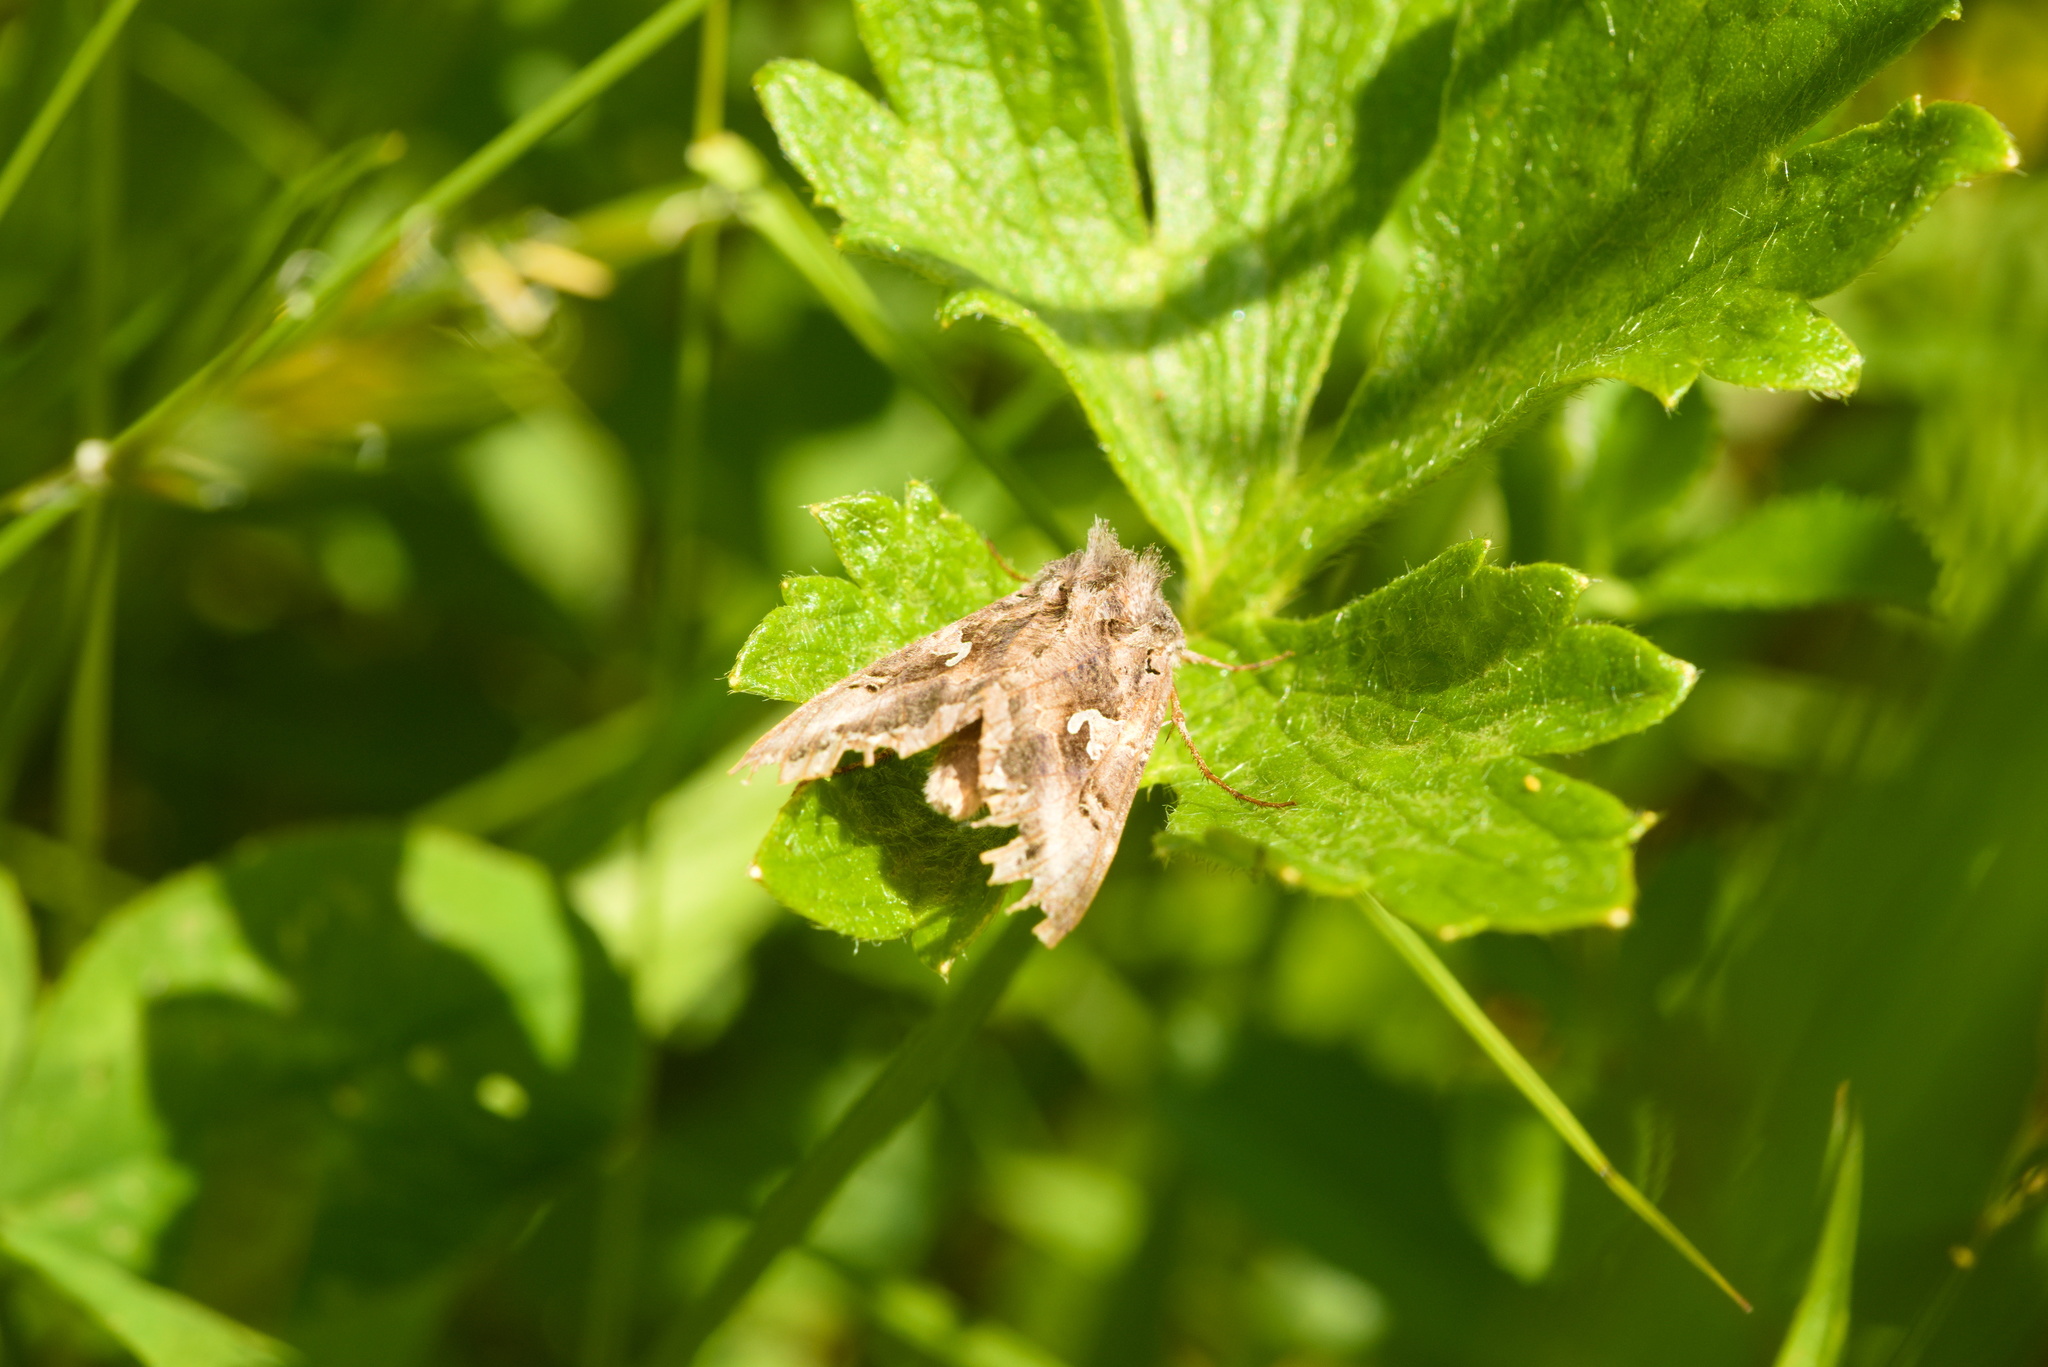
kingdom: Animalia
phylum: Arthropoda
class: Insecta
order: Lepidoptera
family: Noctuidae
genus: Autographa
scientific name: Autographa gamma
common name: Silver y
